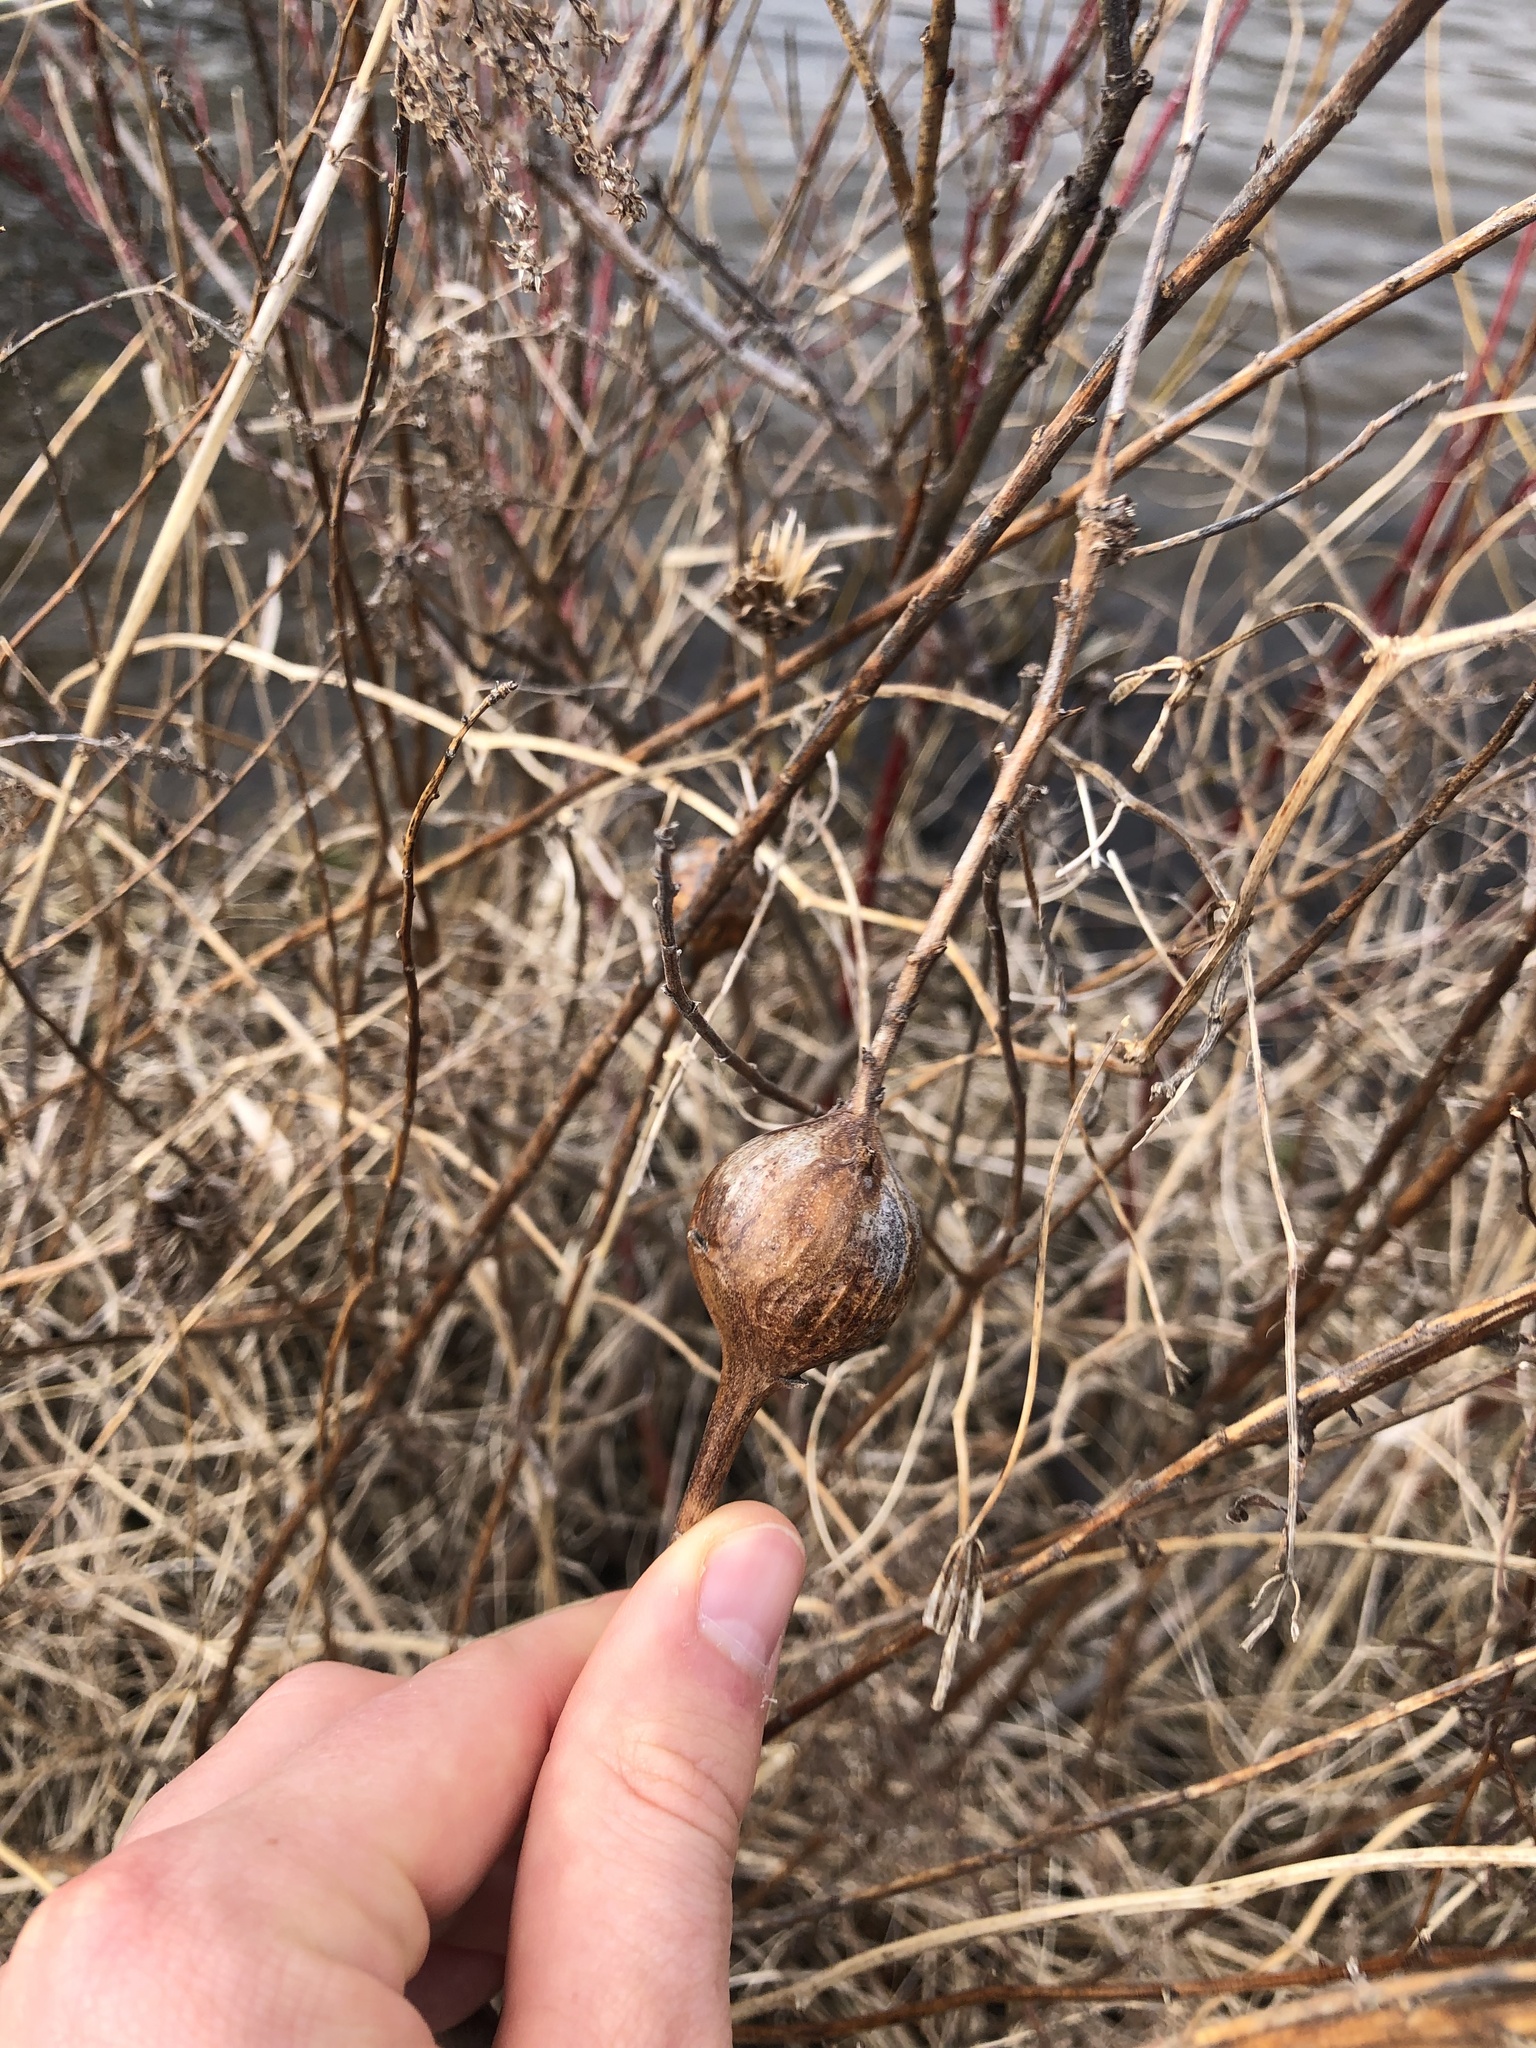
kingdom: Animalia
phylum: Arthropoda
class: Insecta
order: Diptera
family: Tephritidae
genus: Eurosta
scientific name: Eurosta solidaginis
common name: Goldenrod gall fly
